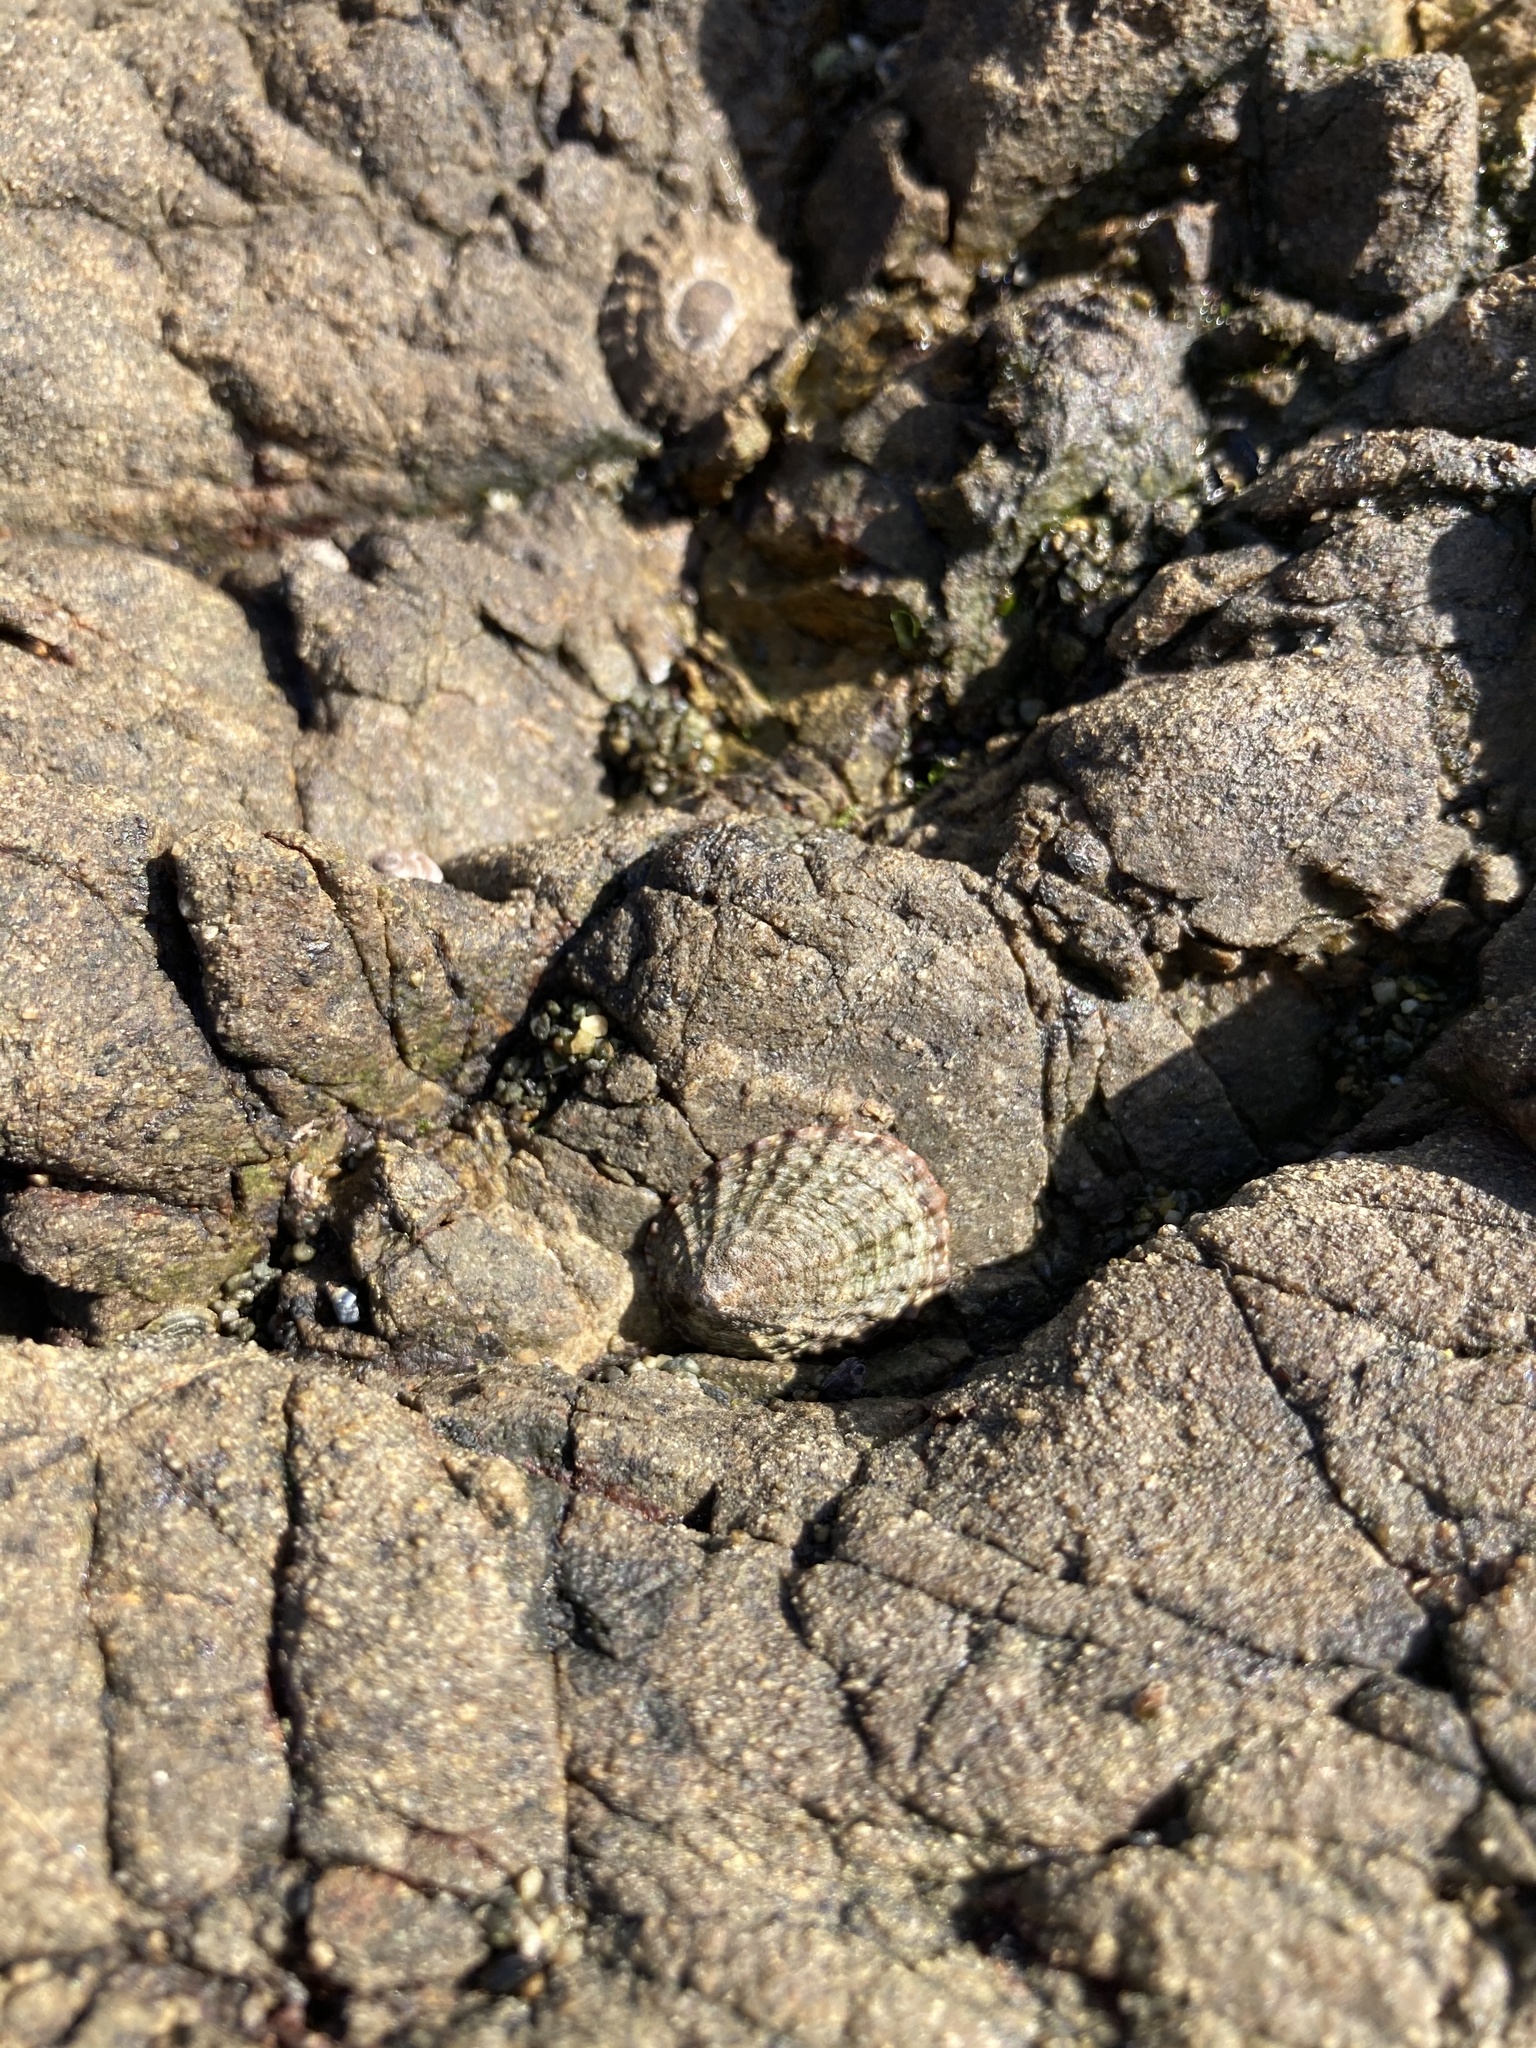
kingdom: Animalia
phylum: Mollusca
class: Gastropoda
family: Nacellidae
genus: Cellana
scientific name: Cellana denticulata
